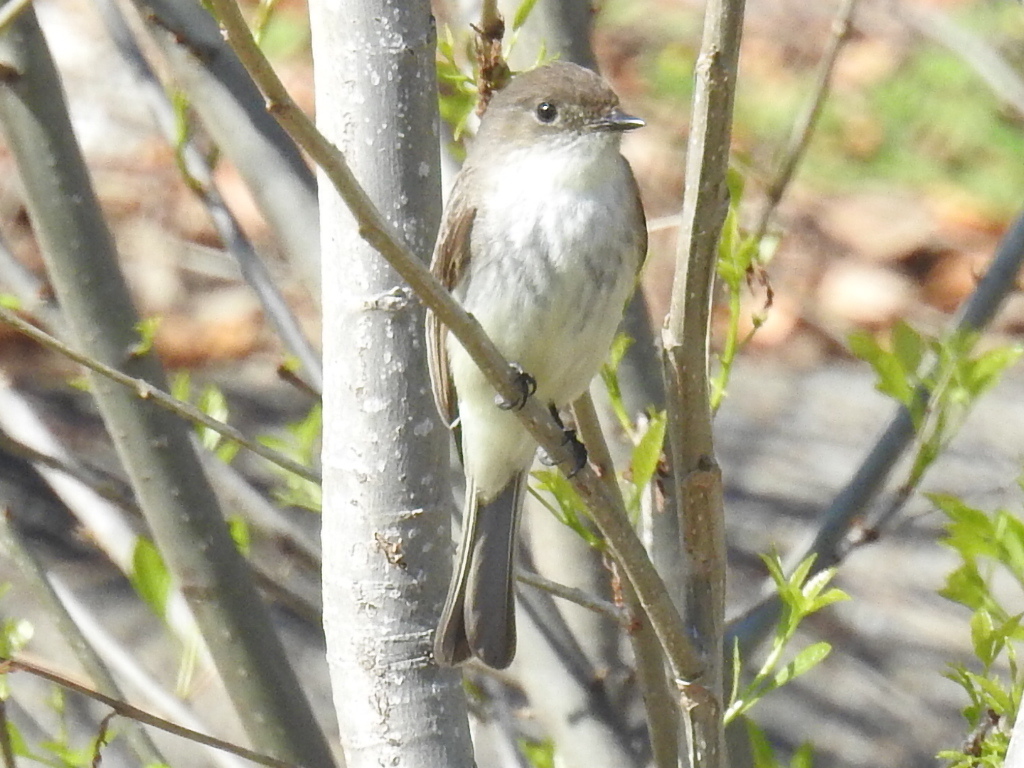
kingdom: Animalia
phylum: Chordata
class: Aves
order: Passeriformes
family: Tyrannidae
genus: Sayornis
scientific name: Sayornis phoebe
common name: Eastern phoebe
